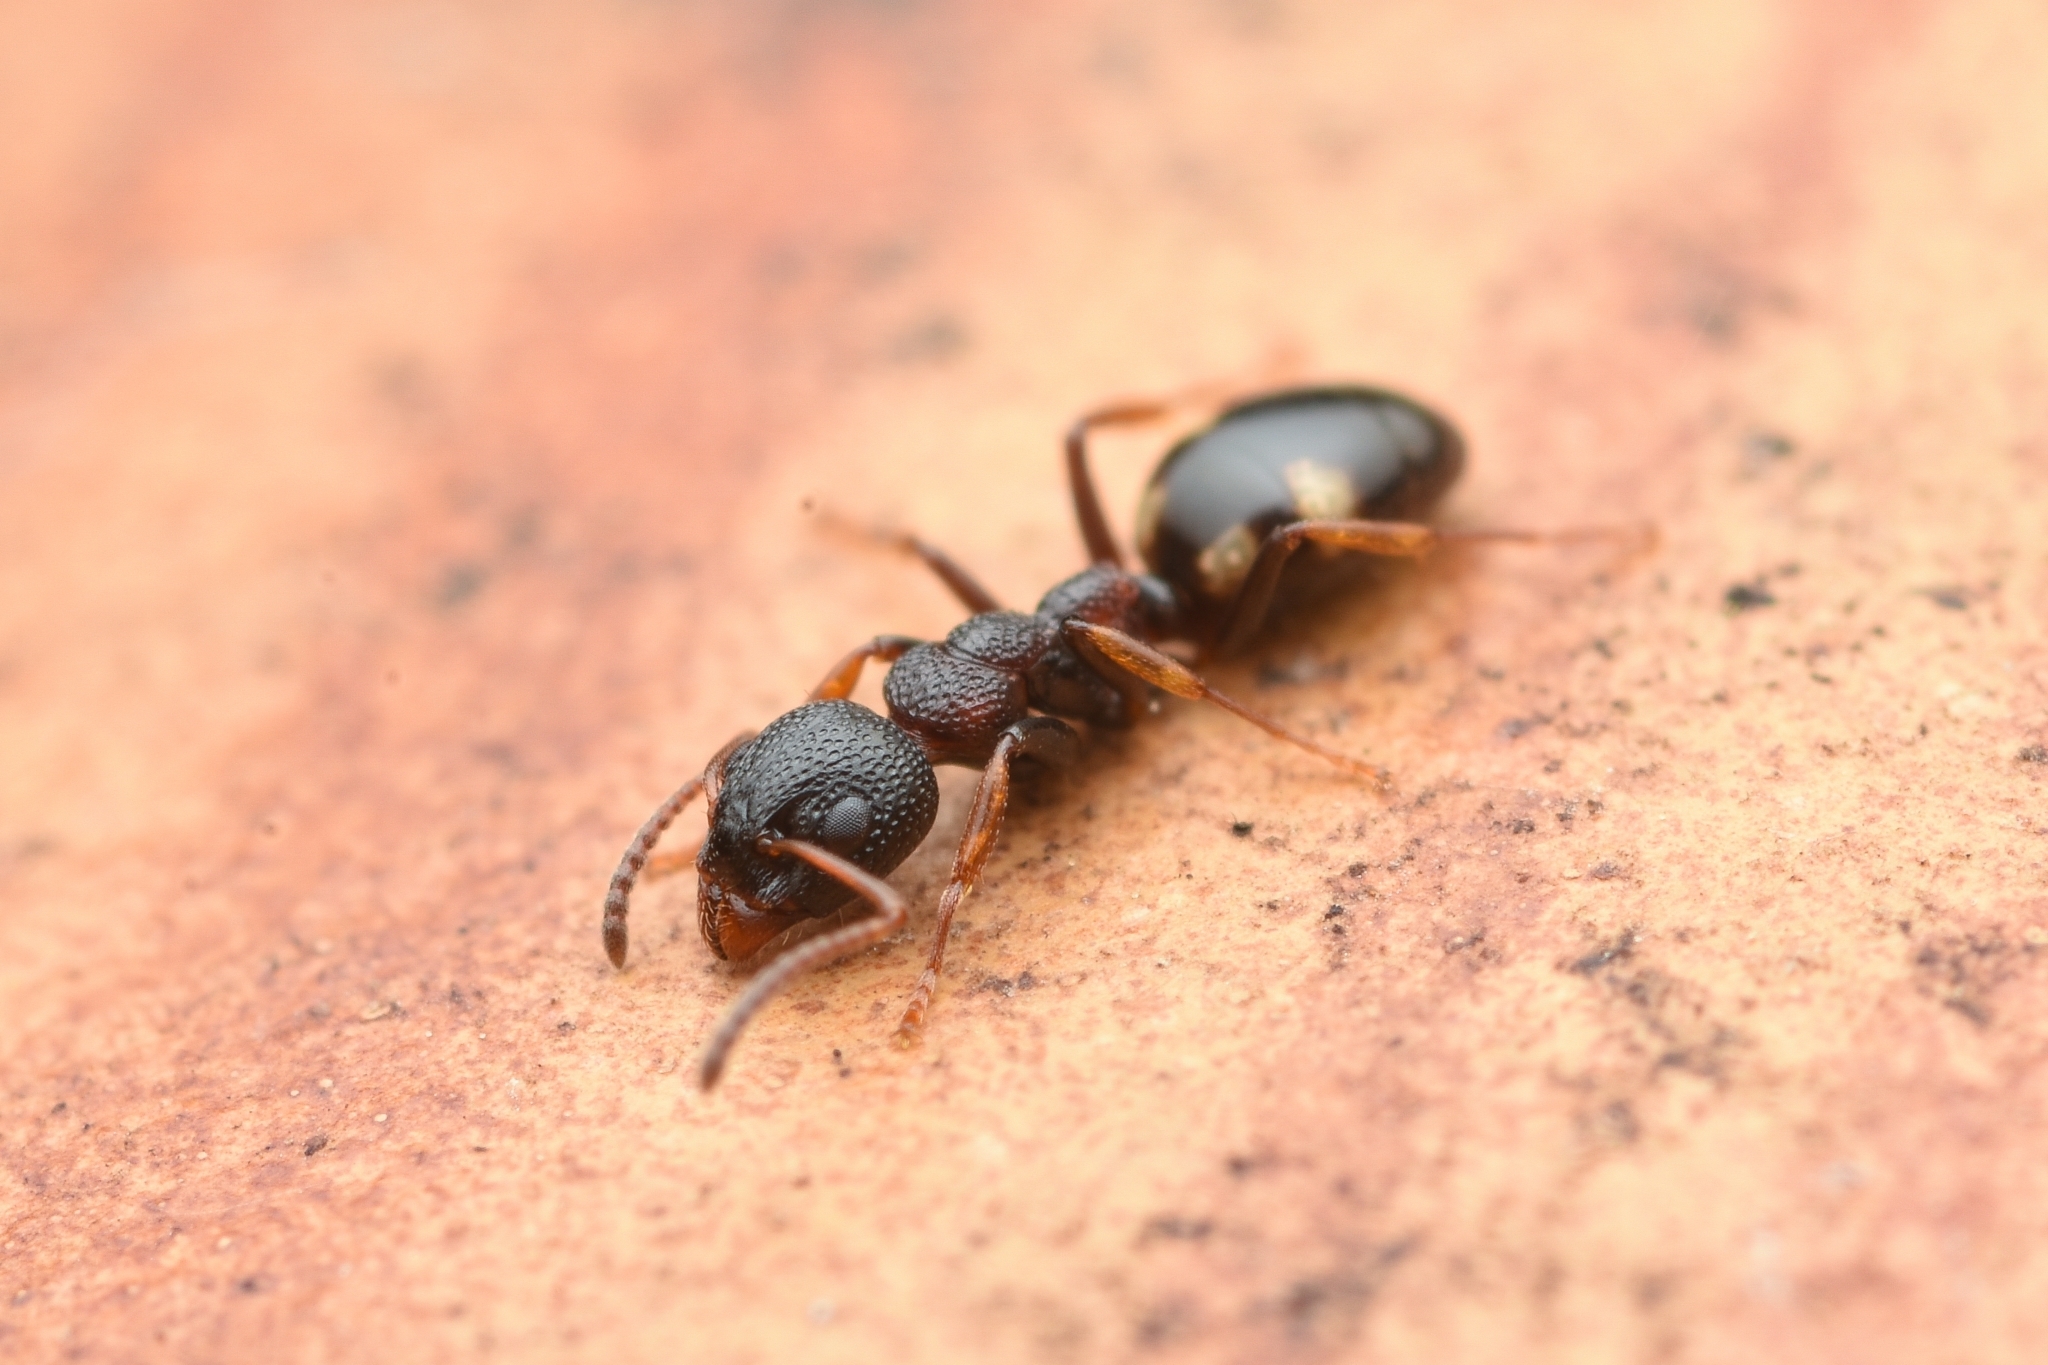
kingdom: Animalia
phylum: Arthropoda
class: Insecta
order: Hymenoptera
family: Formicidae
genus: Dolichoderus
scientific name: Dolichoderus sibiricus
